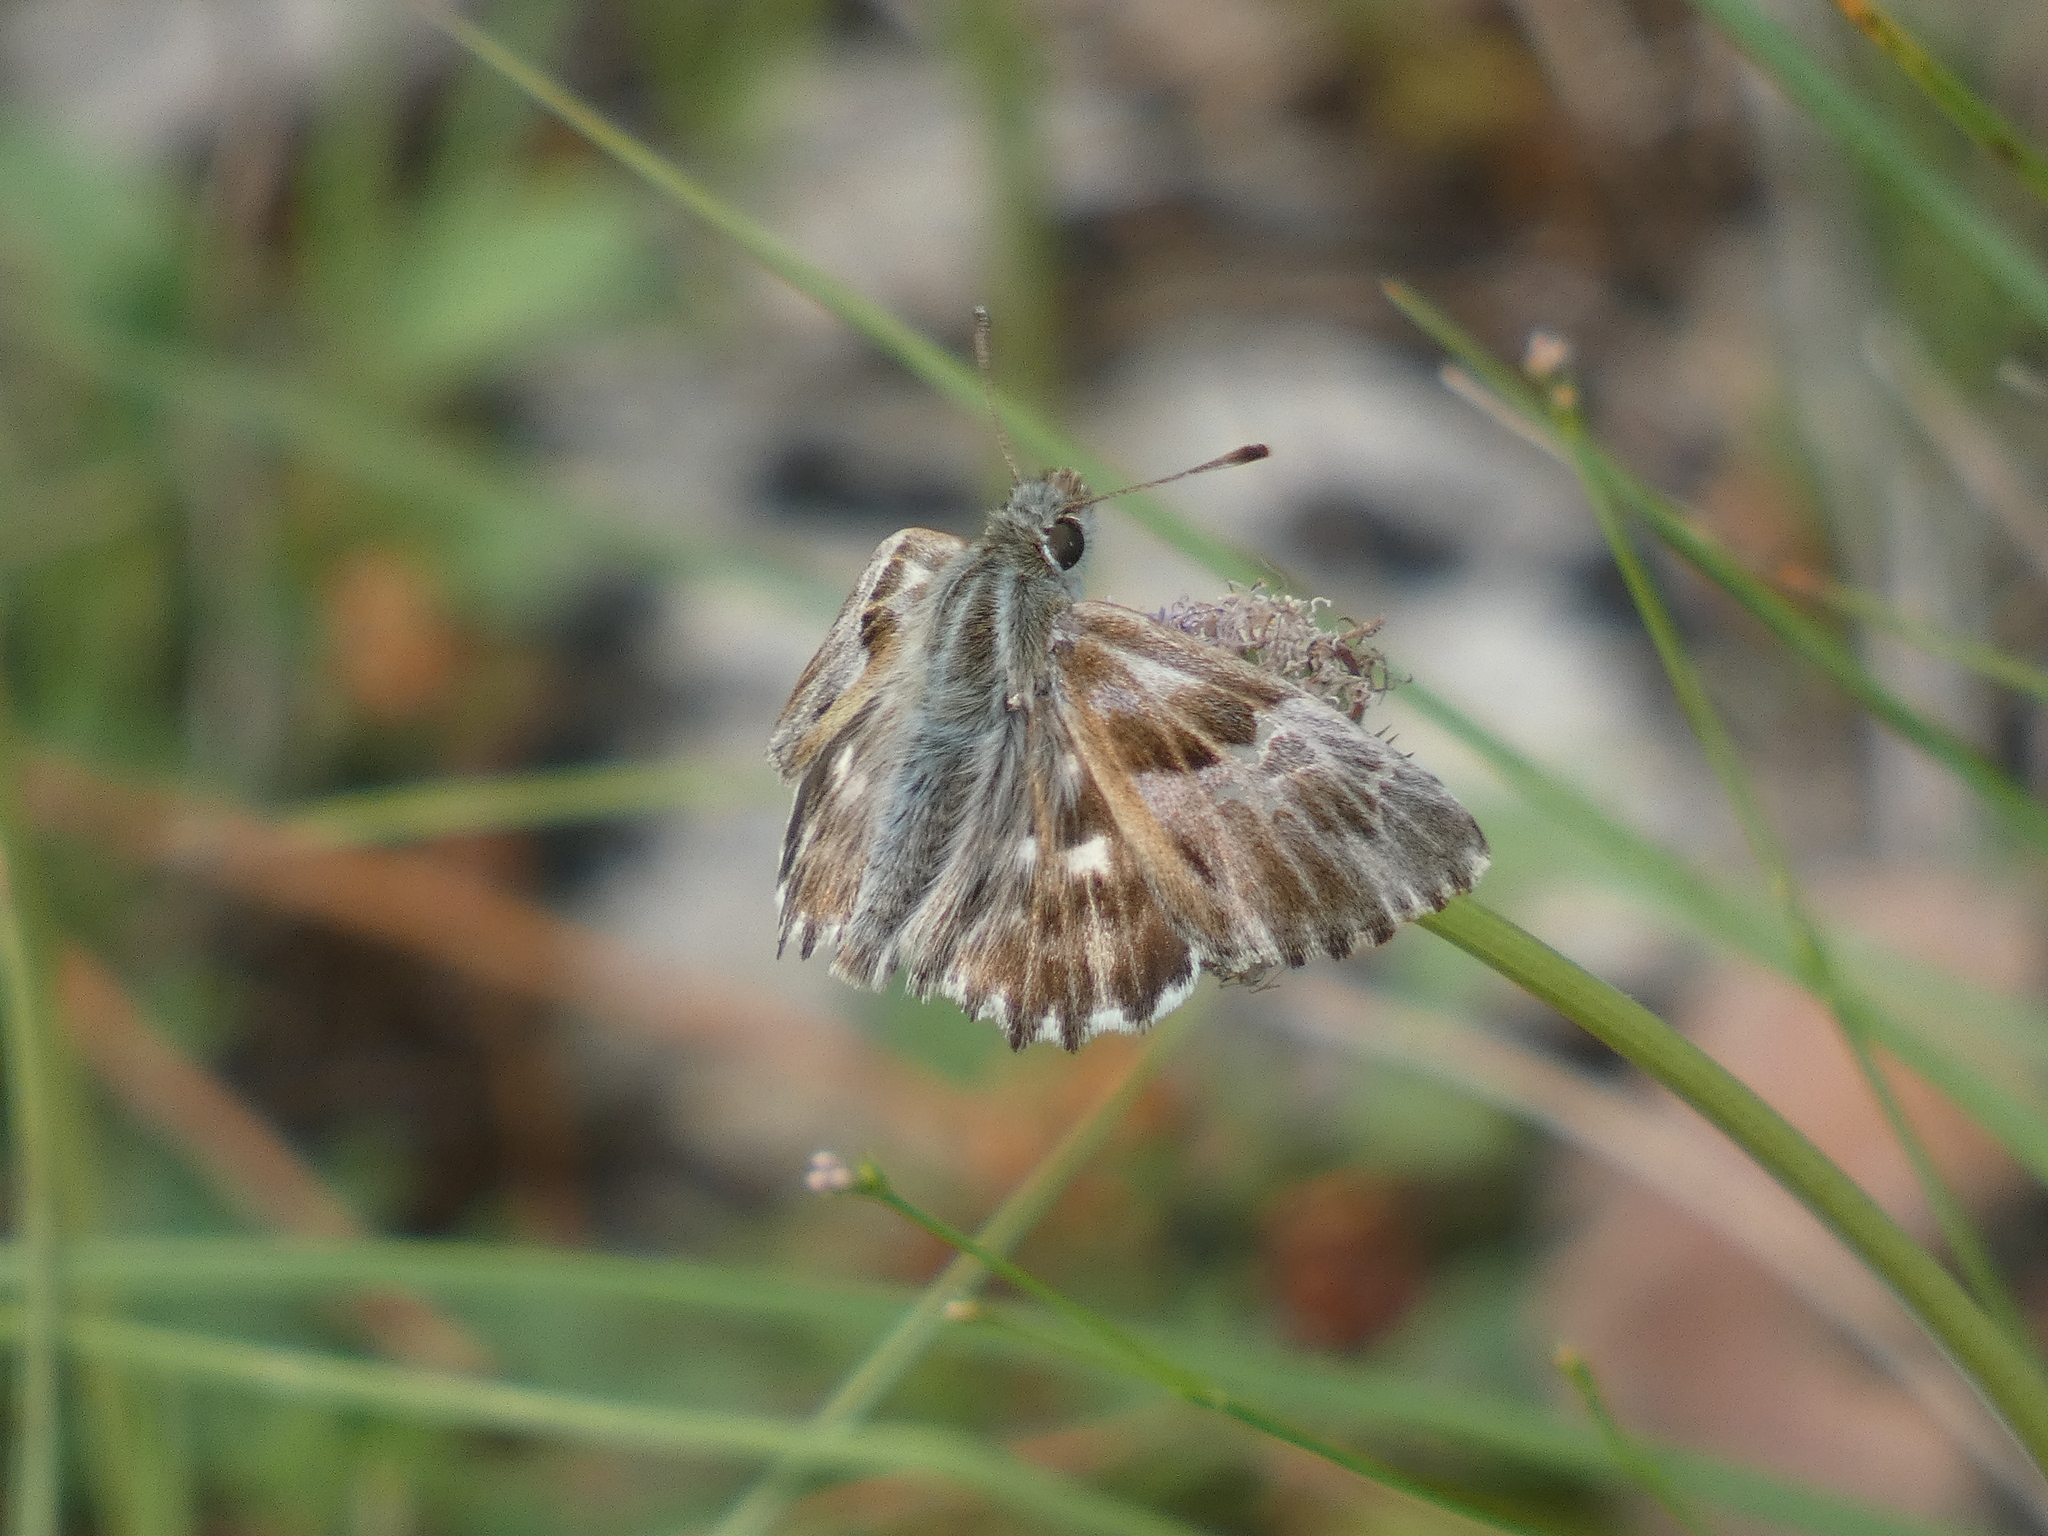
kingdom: Animalia
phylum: Arthropoda
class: Insecta
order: Lepidoptera
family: Hesperiidae
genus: Carcharodus
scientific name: Carcharodus floccifera
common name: Tufted marbled skipper
